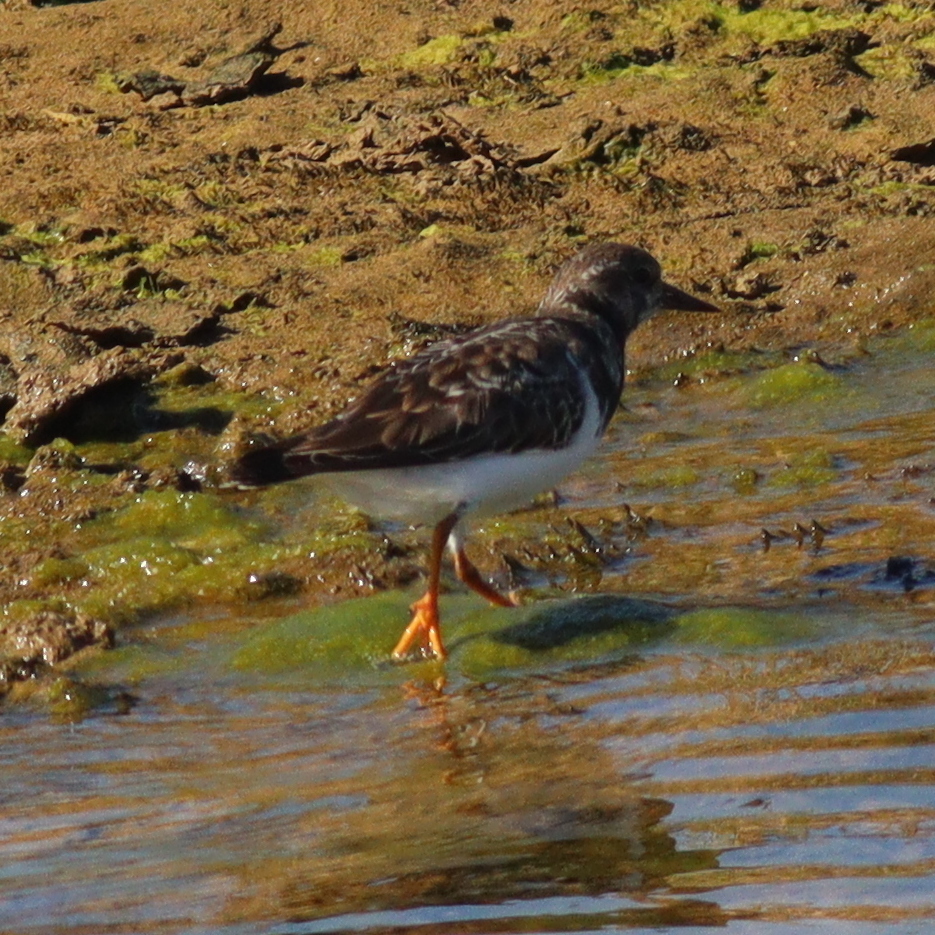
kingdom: Animalia
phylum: Chordata
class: Aves
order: Charadriiformes
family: Scolopacidae
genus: Arenaria
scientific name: Arenaria interpres
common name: Ruddy turnstone
